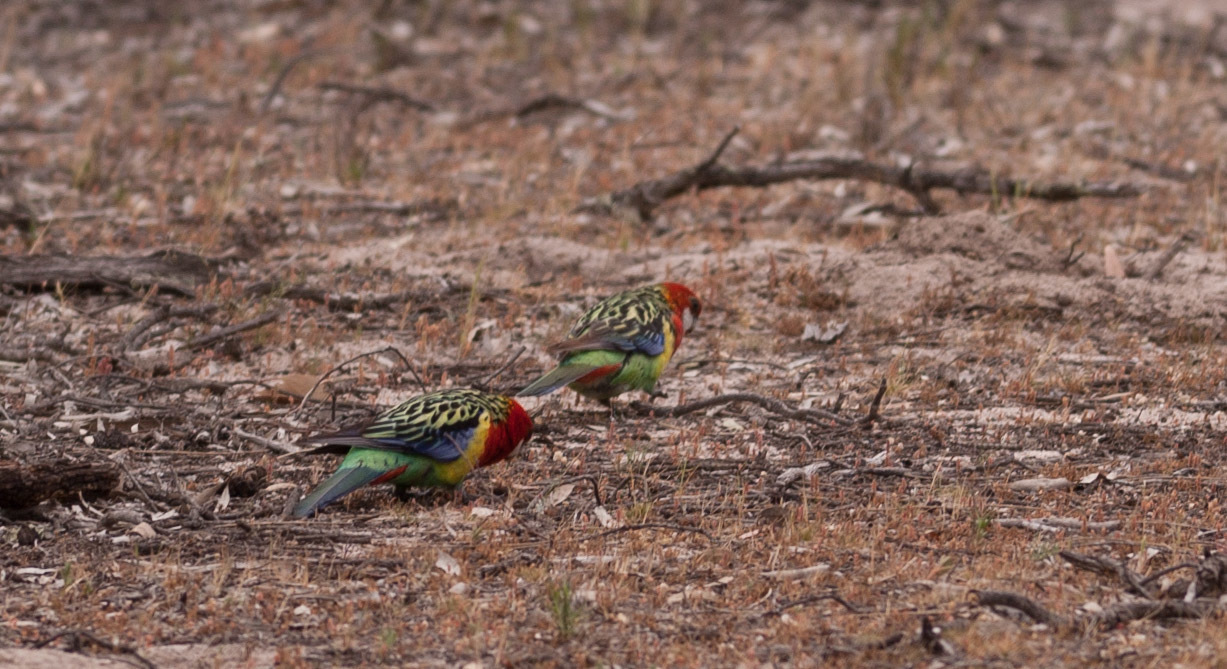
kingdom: Animalia
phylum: Chordata
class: Aves
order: Psittaciformes
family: Psittacidae
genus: Platycercus
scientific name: Platycercus eximius
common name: Eastern rosella
